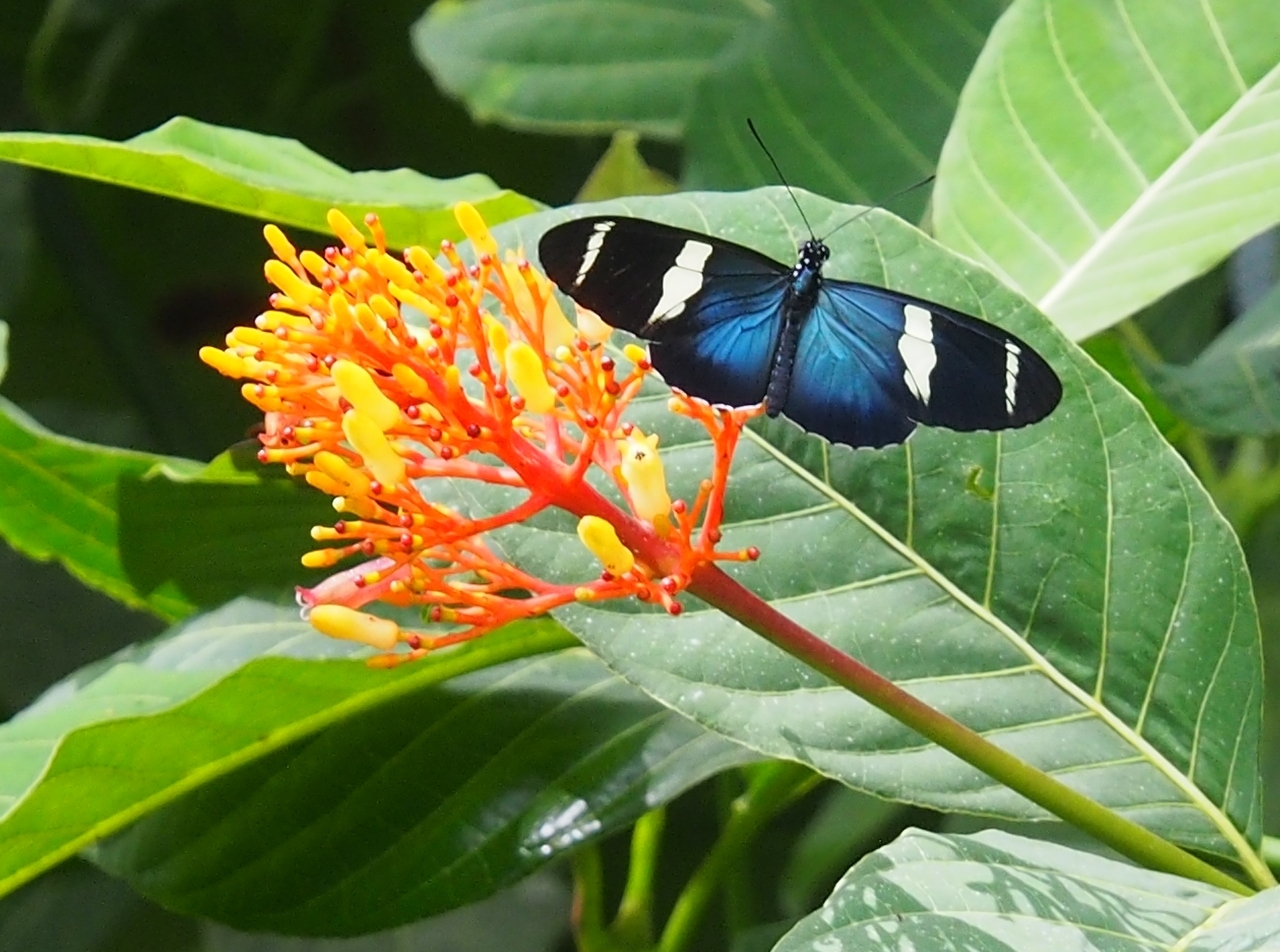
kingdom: Animalia
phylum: Arthropoda
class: Insecta
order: Lepidoptera
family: Nymphalidae
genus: Heliconius
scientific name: Heliconius sara
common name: Sara longwing
